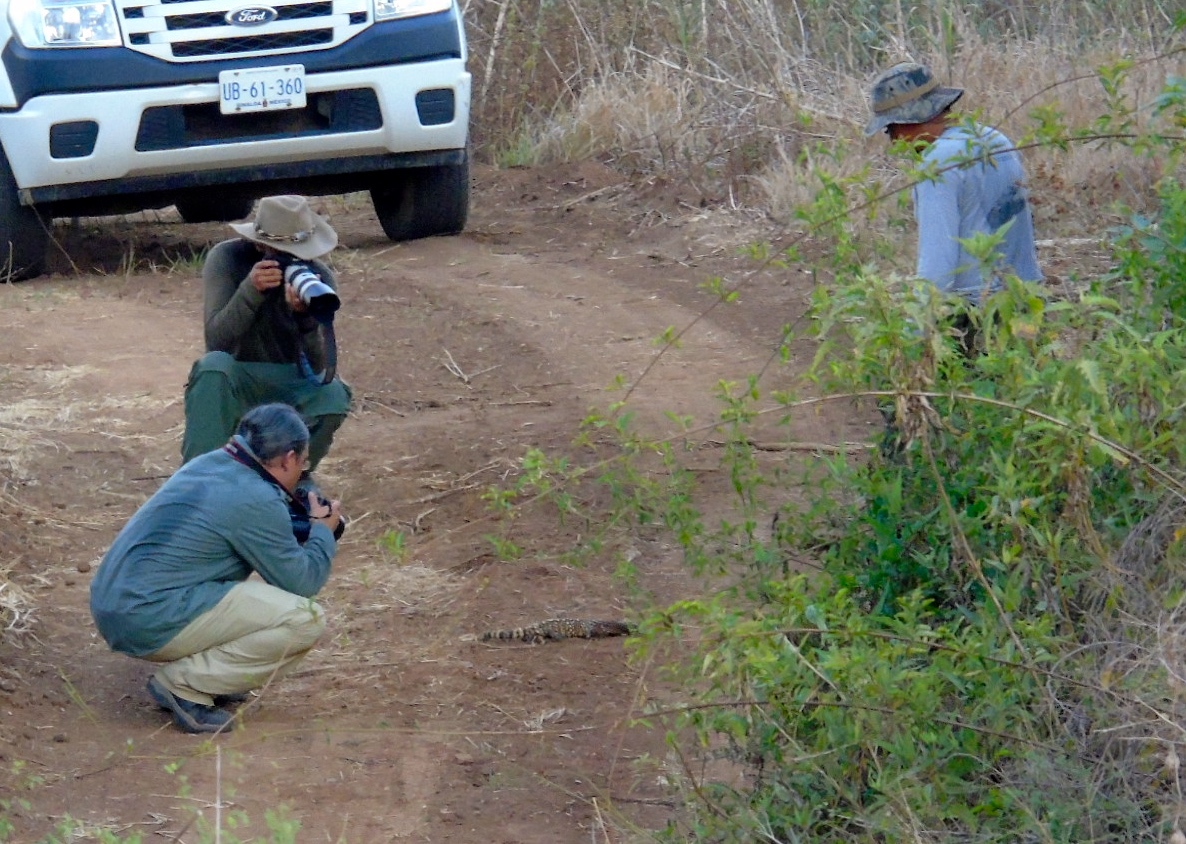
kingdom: Animalia
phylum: Chordata
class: Squamata
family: Helodermatidae
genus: Heloderma
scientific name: Heloderma horridum
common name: Mexican beaded lizard
